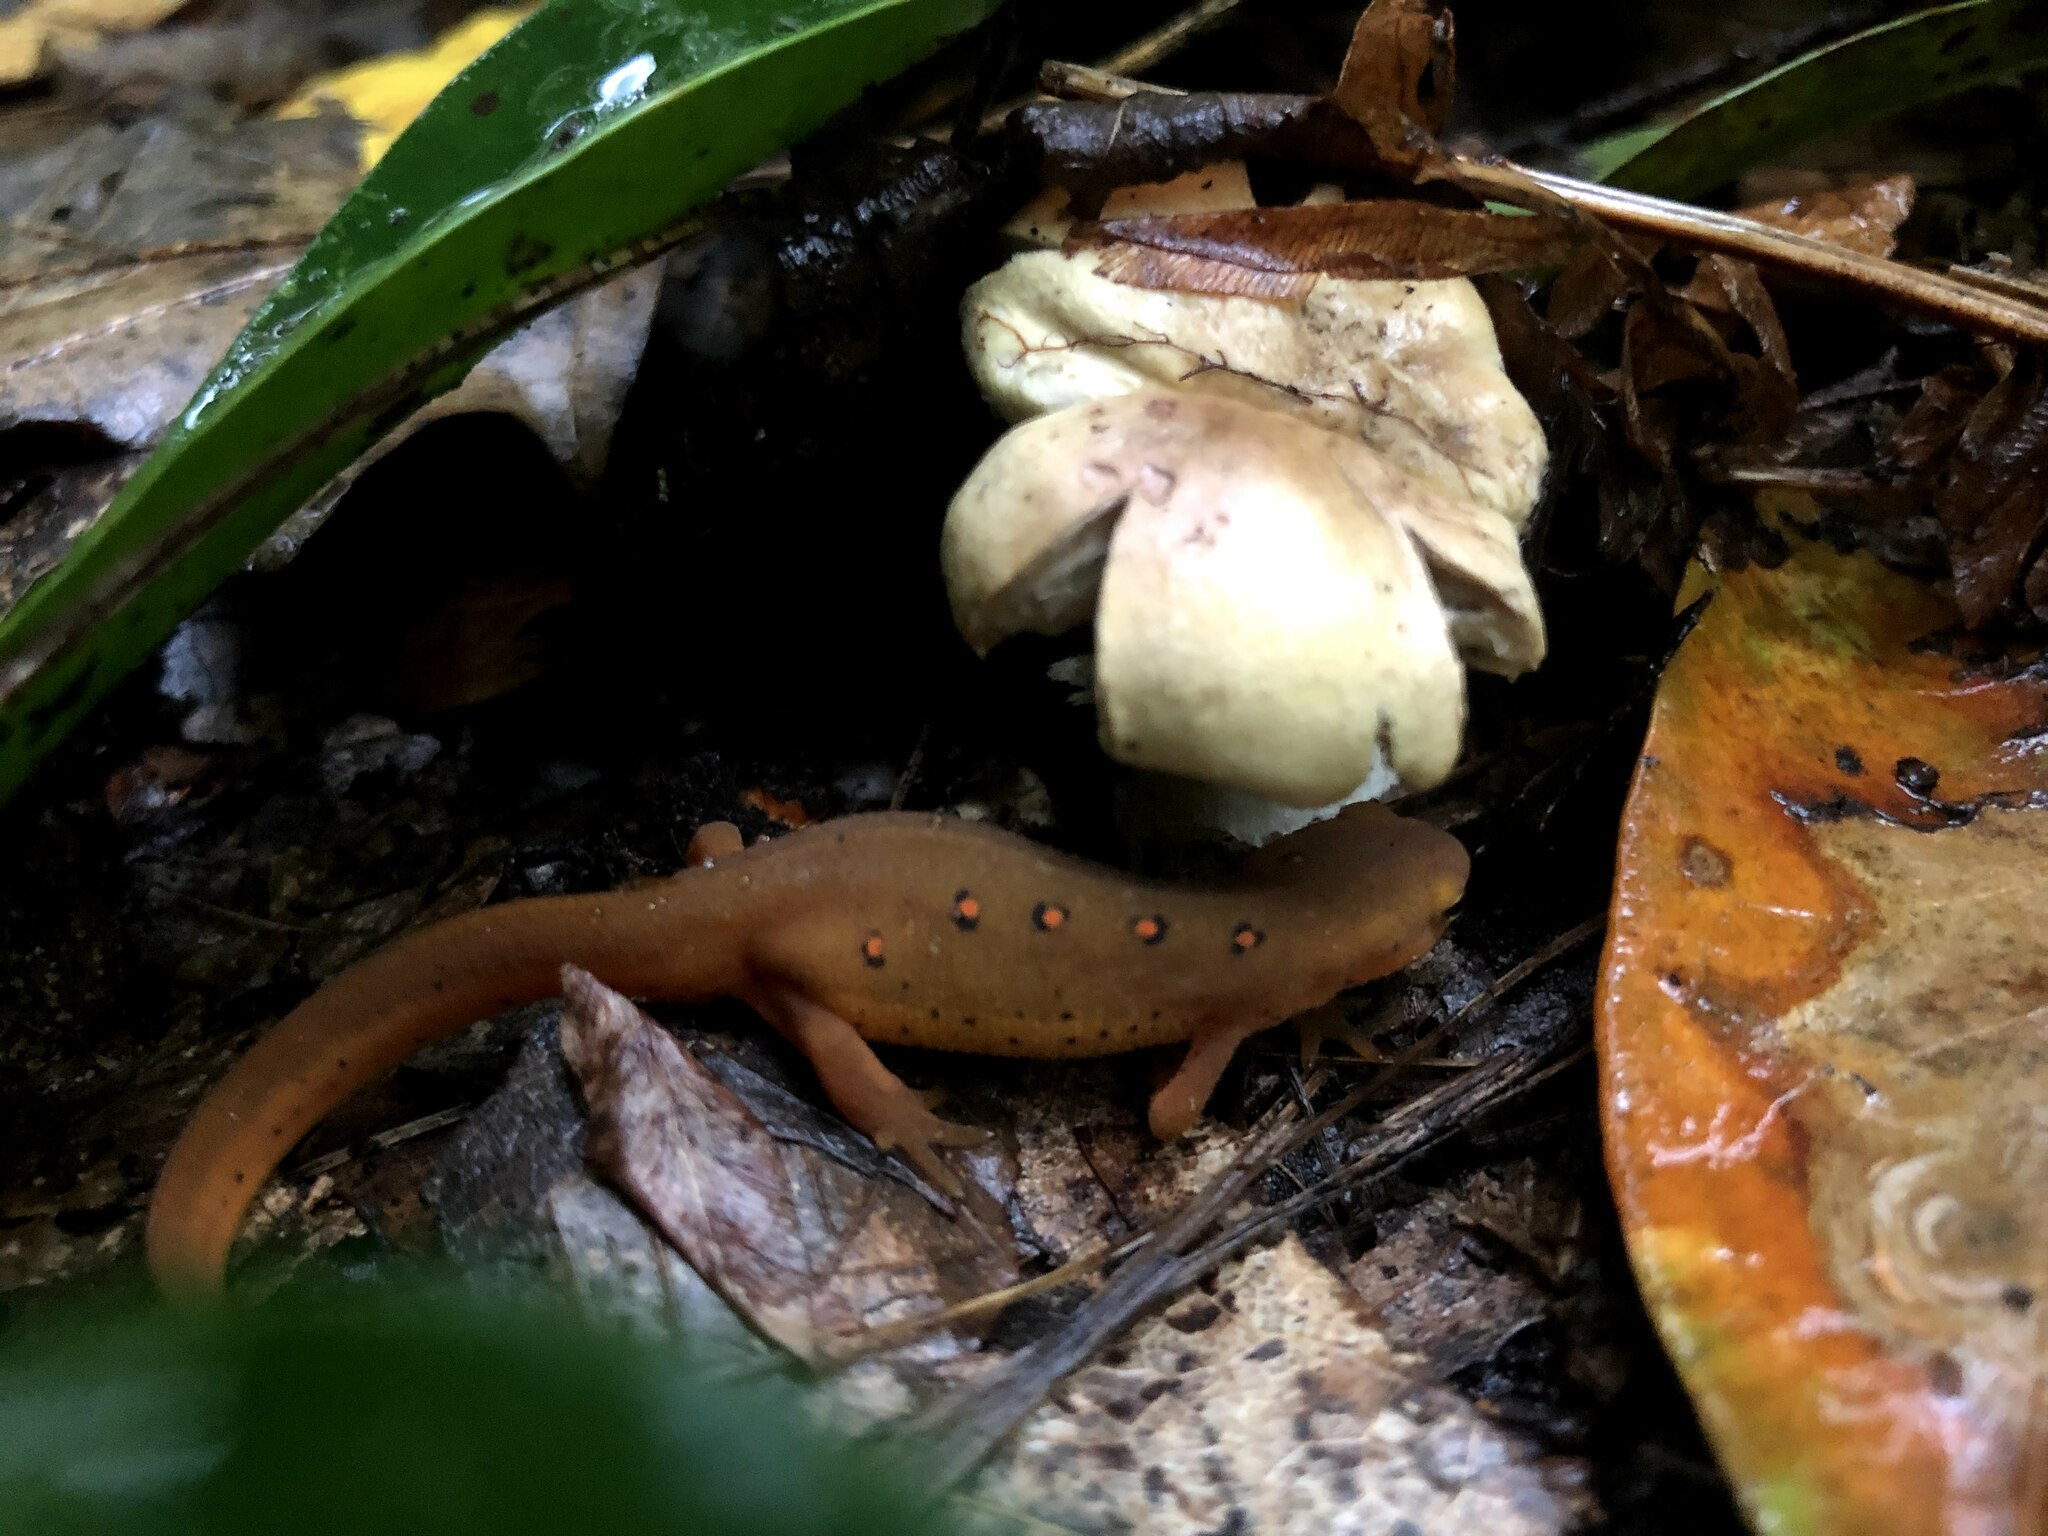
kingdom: Animalia
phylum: Chordata
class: Amphibia
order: Caudata
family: Salamandridae
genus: Notophthalmus
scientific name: Notophthalmus viridescens
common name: Eastern newt
